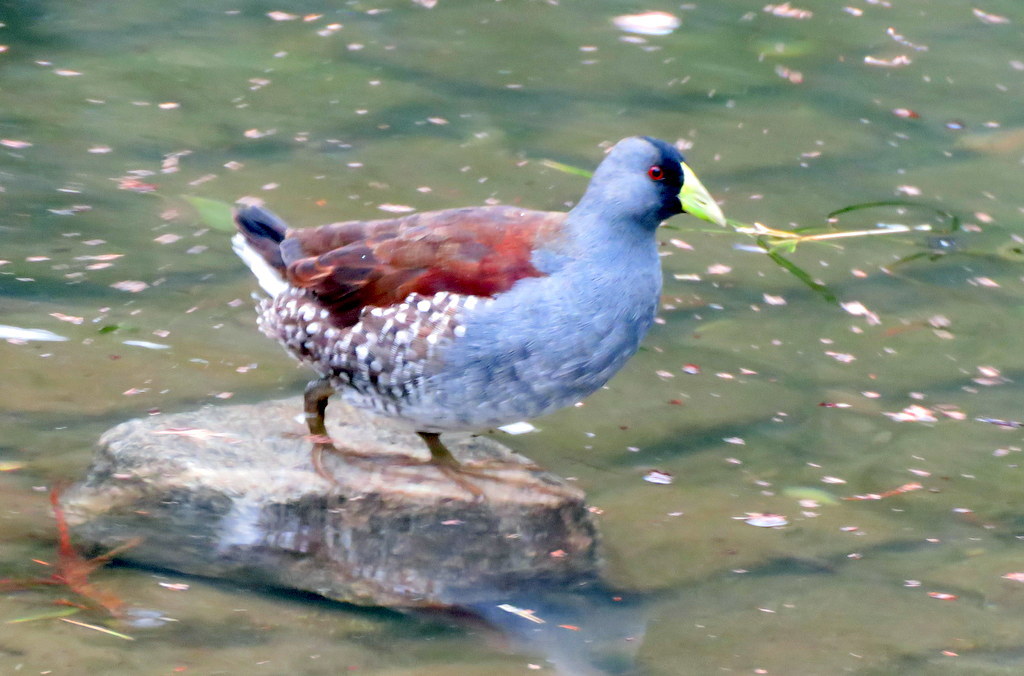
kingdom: Animalia
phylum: Chordata
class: Aves
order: Gruiformes
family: Rallidae
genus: Gallinula
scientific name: Gallinula melanops
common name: Spot-flanked gallinule
